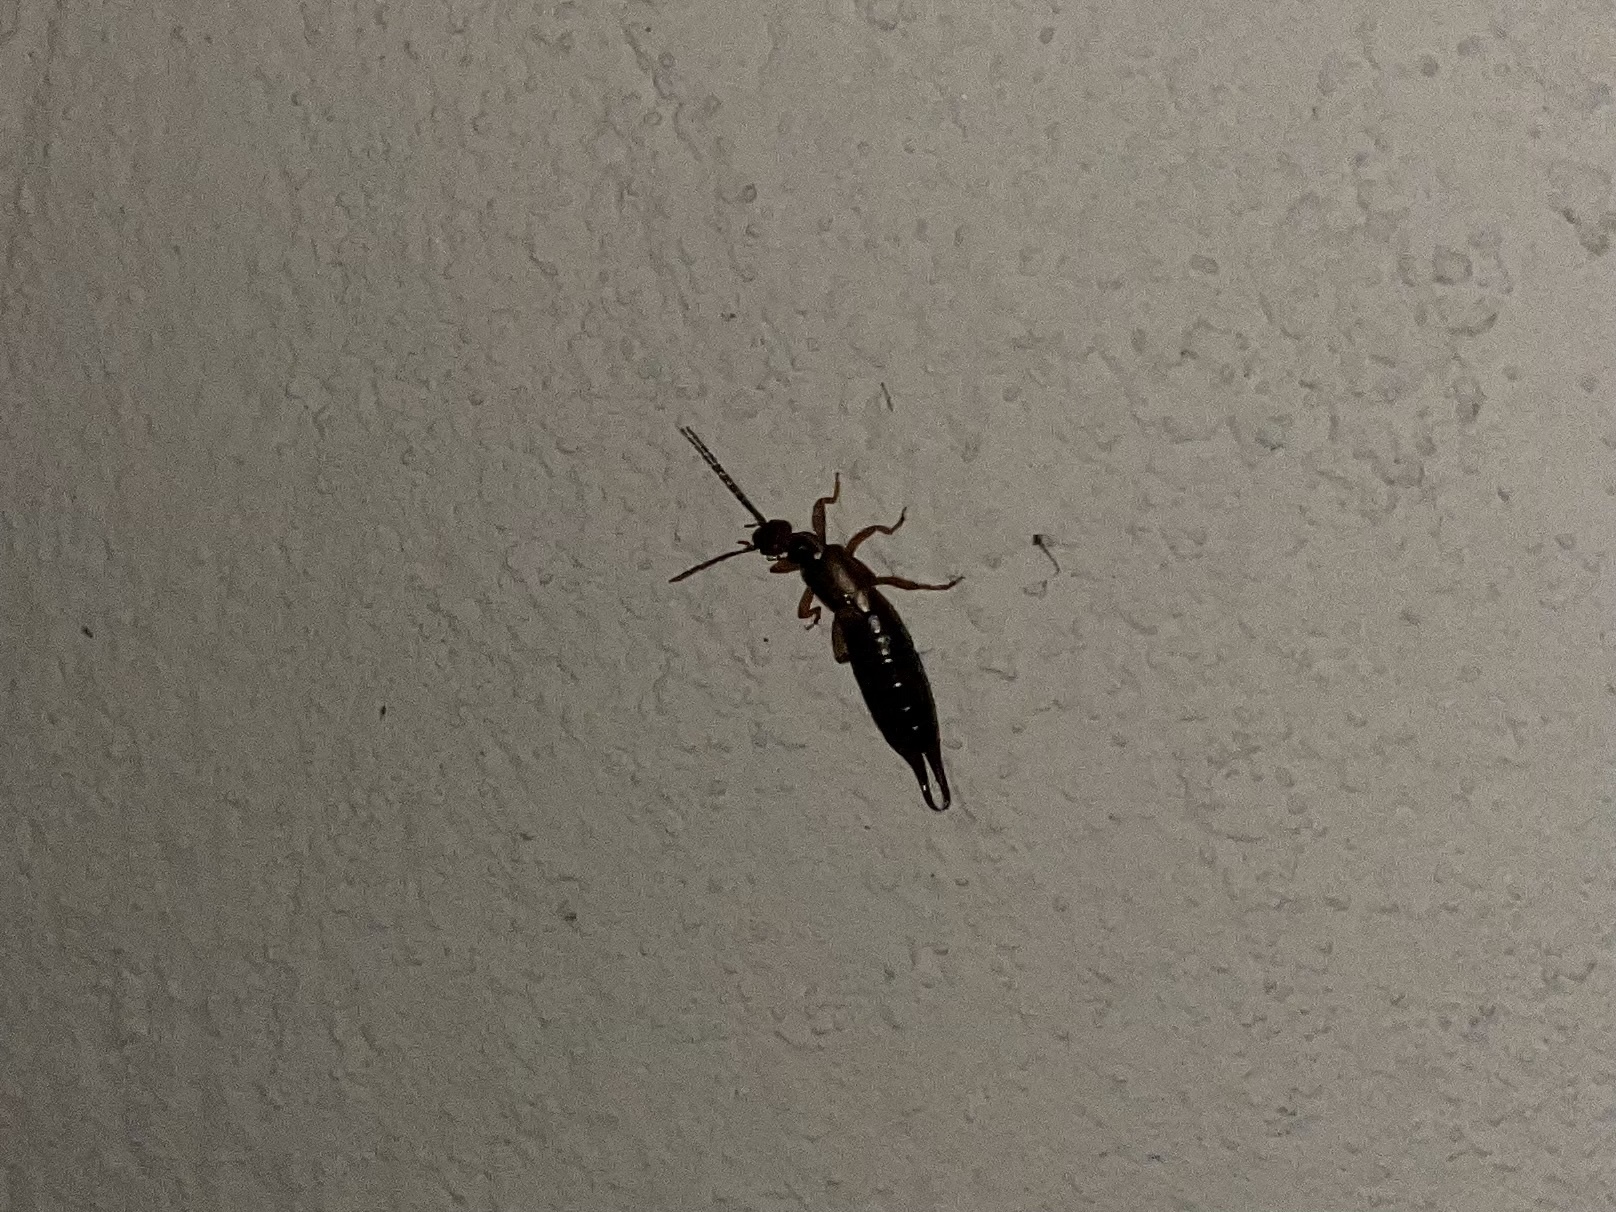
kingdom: Animalia
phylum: Arthropoda
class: Insecta
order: Dermaptera
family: Forficulidae
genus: Forficula
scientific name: Forficula
